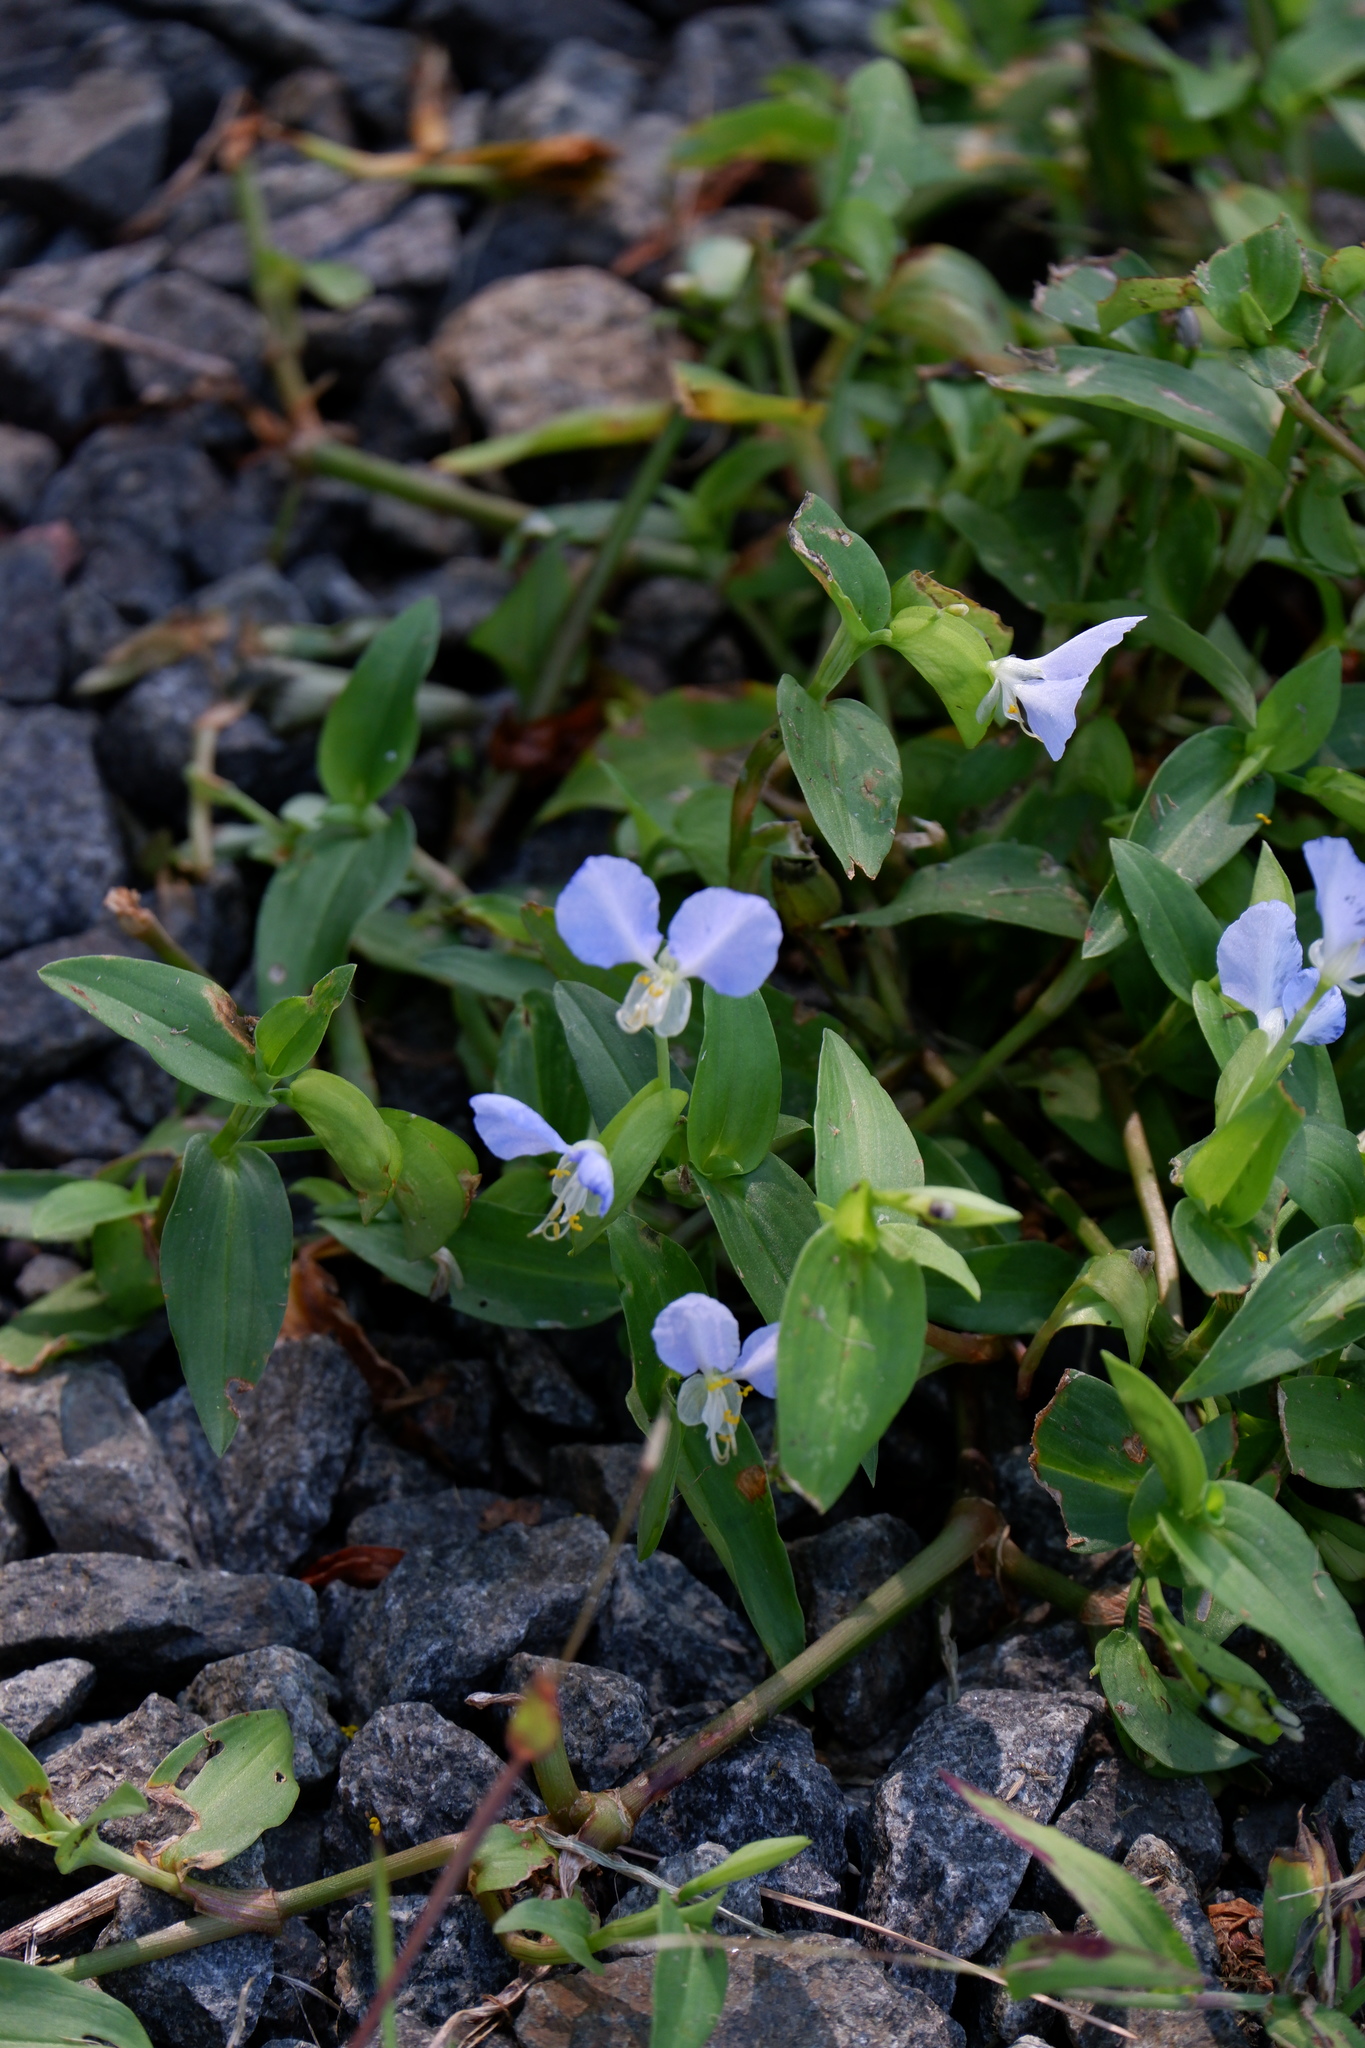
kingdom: Plantae
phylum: Tracheophyta
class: Liliopsida
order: Commelinales
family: Commelinaceae
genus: Commelina
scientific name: Commelina communis
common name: Asiatic dayflower
